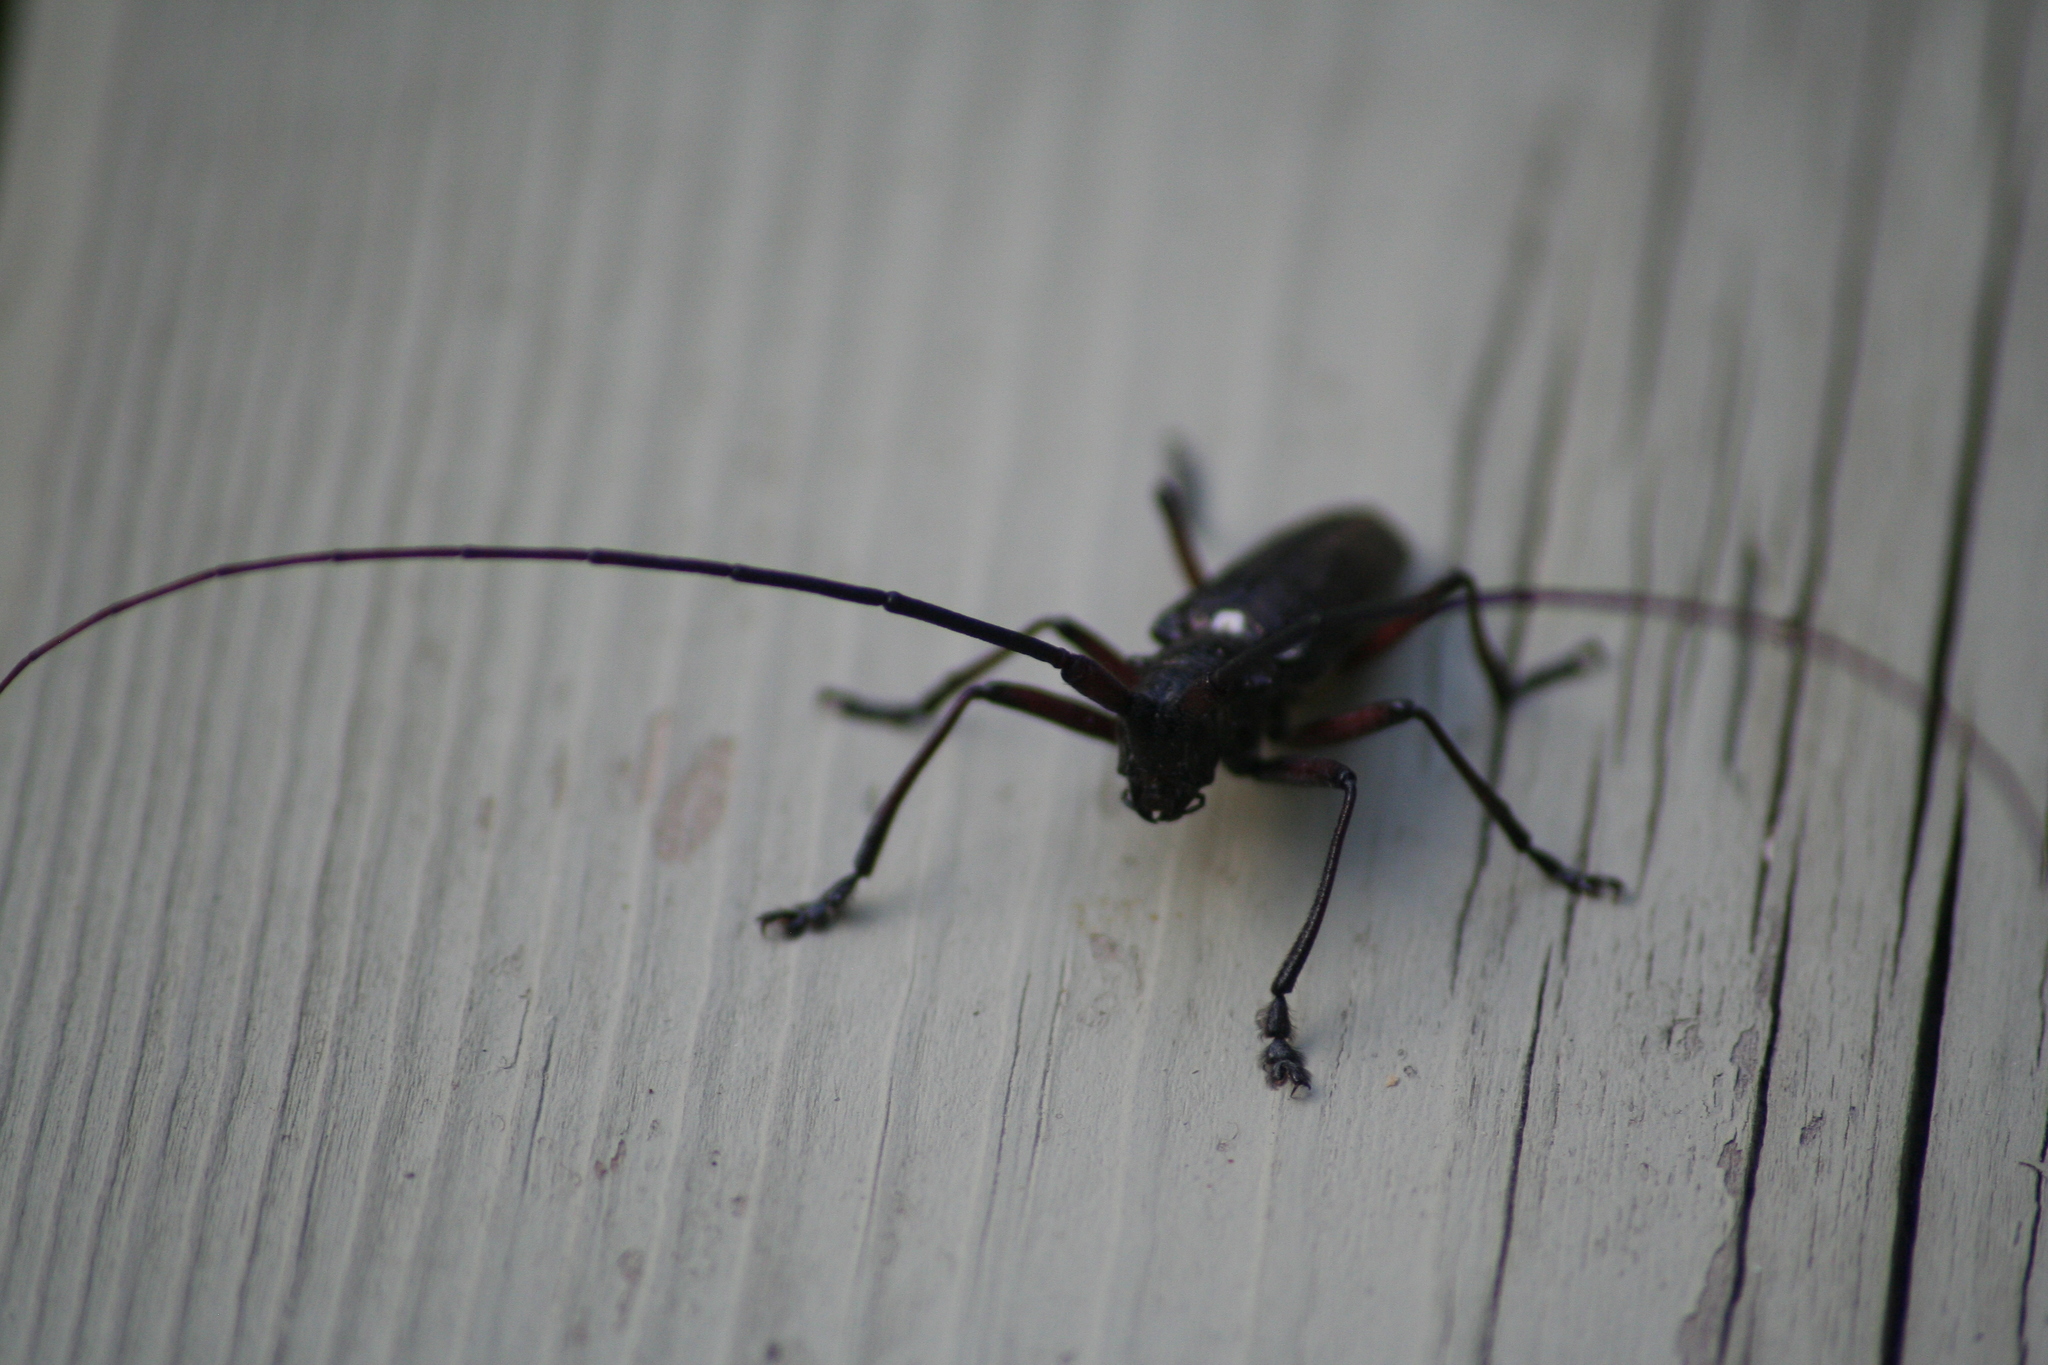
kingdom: Animalia
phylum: Arthropoda
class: Insecta
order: Coleoptera
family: Cerambycidae
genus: Monochamus
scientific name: Monochamus scutellatus
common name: White-spotted sawyer beetle
